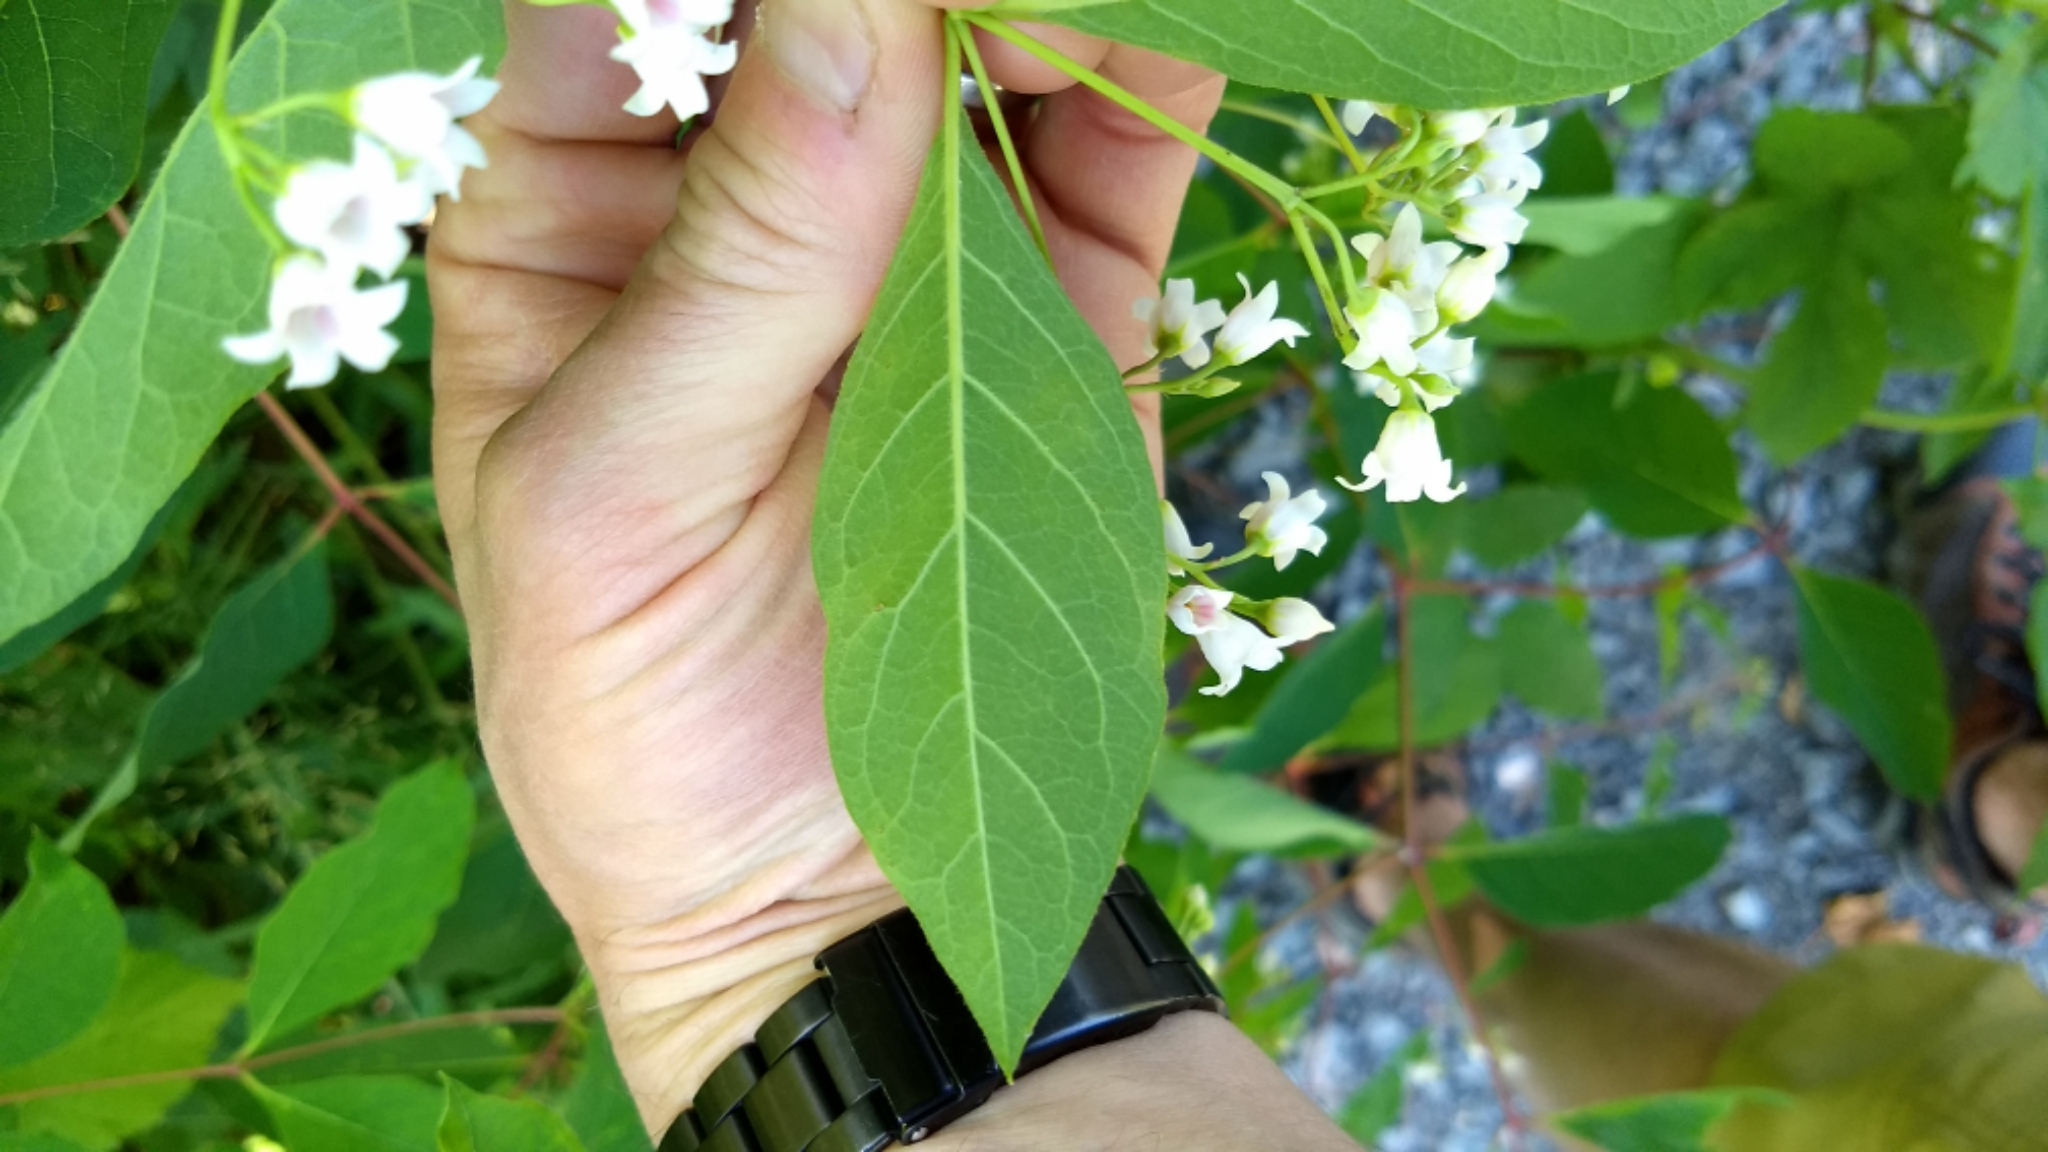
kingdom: Plantae
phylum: Tracheophyta
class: Magnoliopsida
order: Gentianales
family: Apocynaceae
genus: Apocynum
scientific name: Apocynum androsaemifolium
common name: Spreading dogbane
